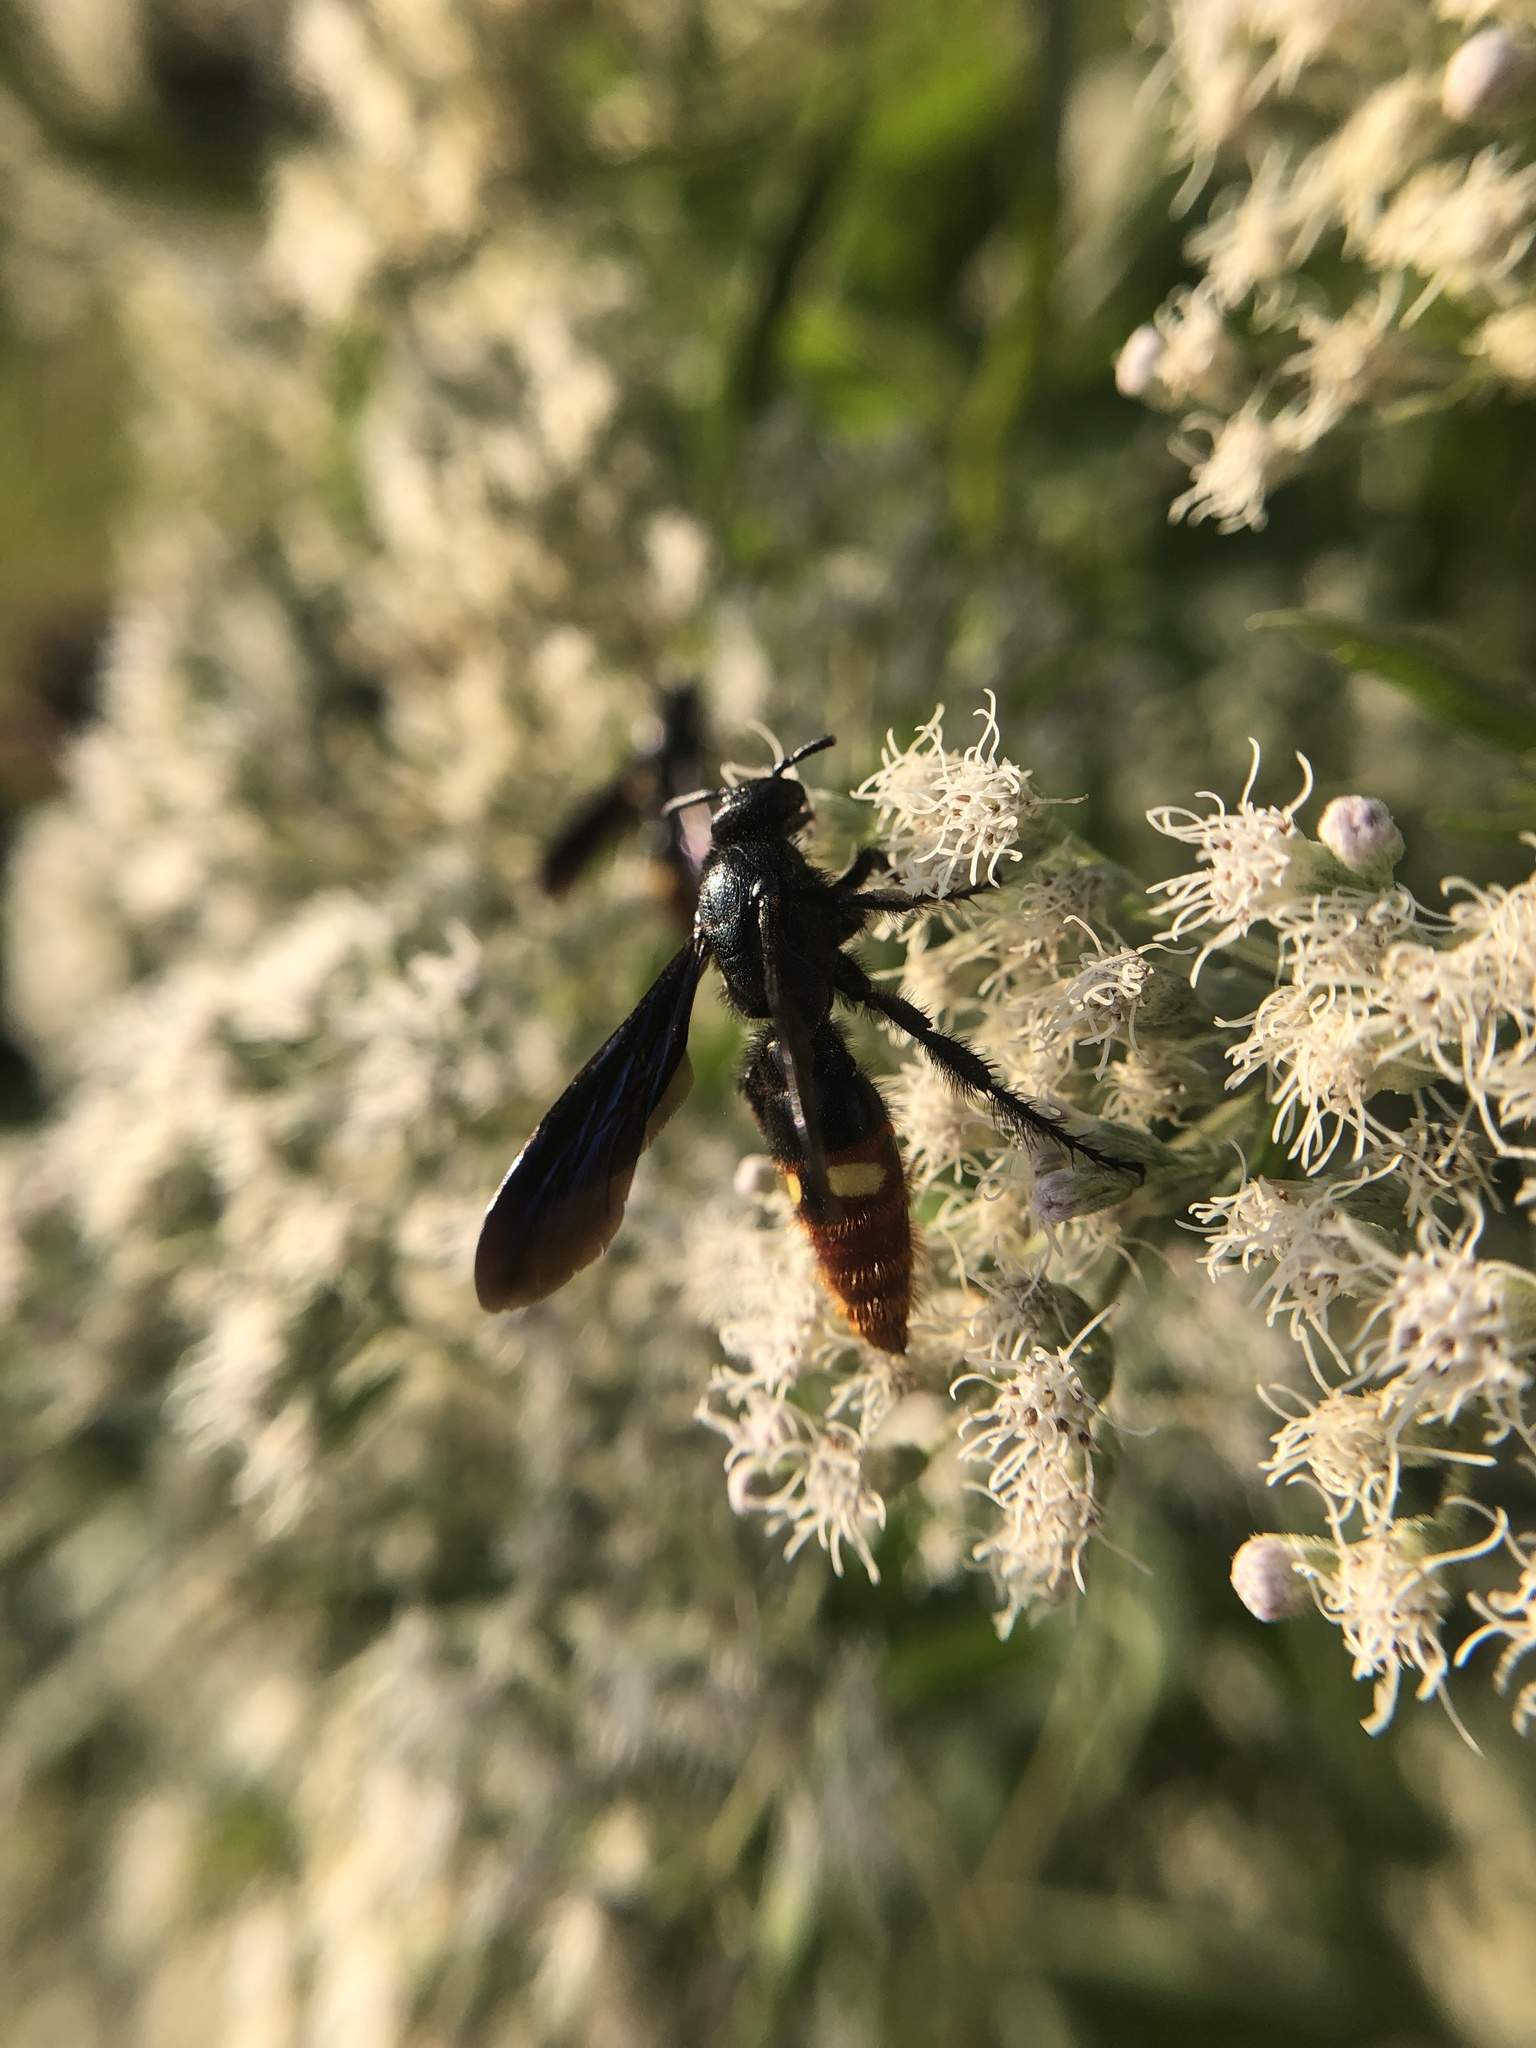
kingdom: Animalia
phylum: Arthropoda
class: Insecta
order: Hymenoptera
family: Scoliidae
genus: Scolia
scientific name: Scolia dubia
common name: Blue-winged scoliid wasp
